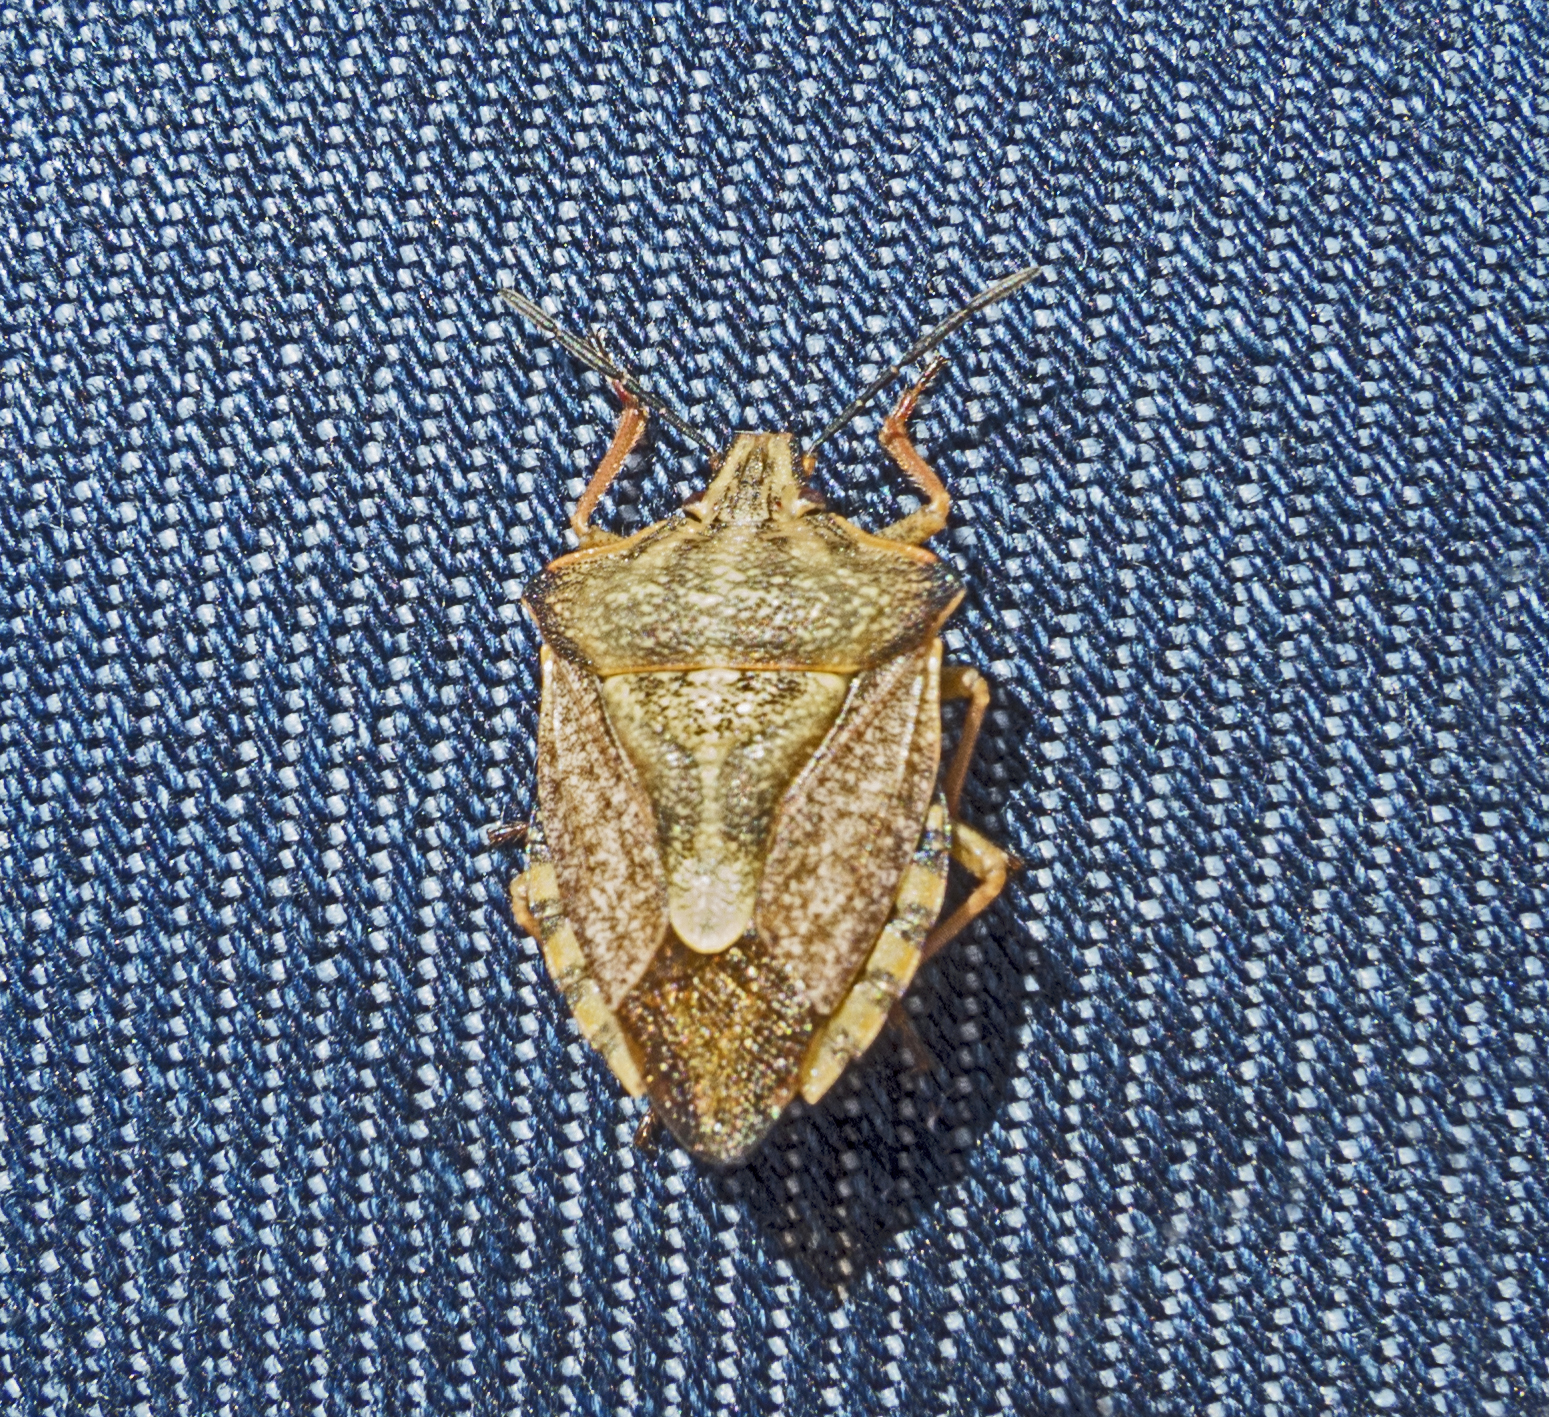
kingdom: Animalia
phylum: Arthropoda
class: Insecta
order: Hemiptera
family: Pentatomidae
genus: Carpocoris
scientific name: Carpocoris purpureipennis
